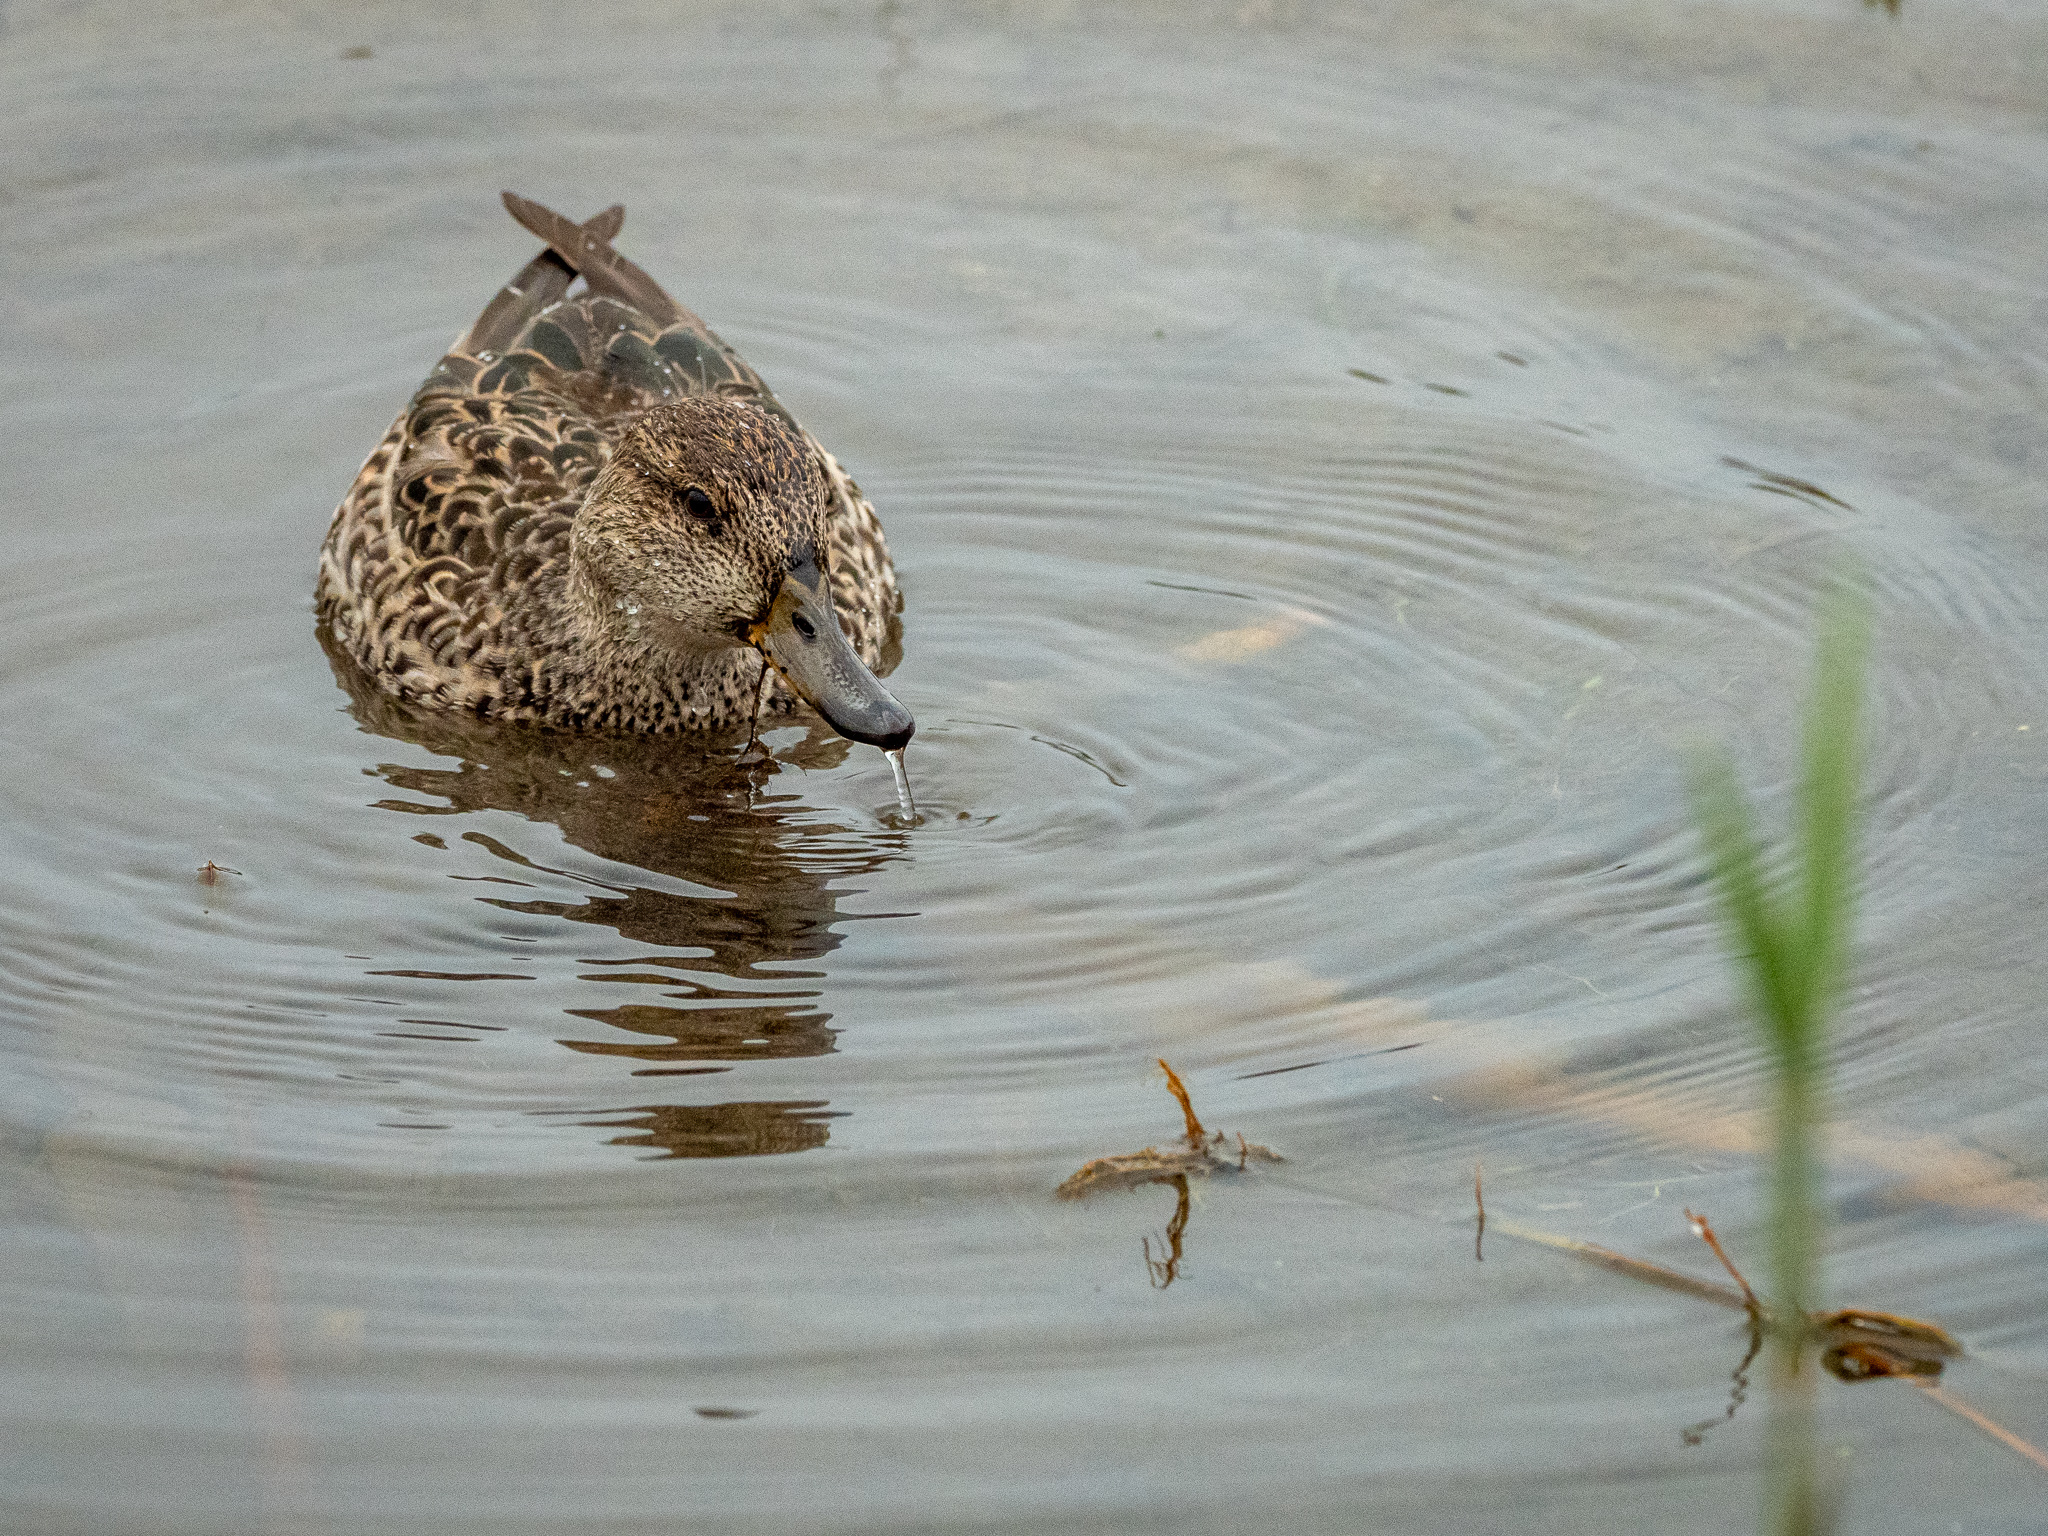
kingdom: Animalia
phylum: Chordata
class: Aves
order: Anseriformes
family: Anatidae
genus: Anas
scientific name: Anas crecca
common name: Eurasian teal
